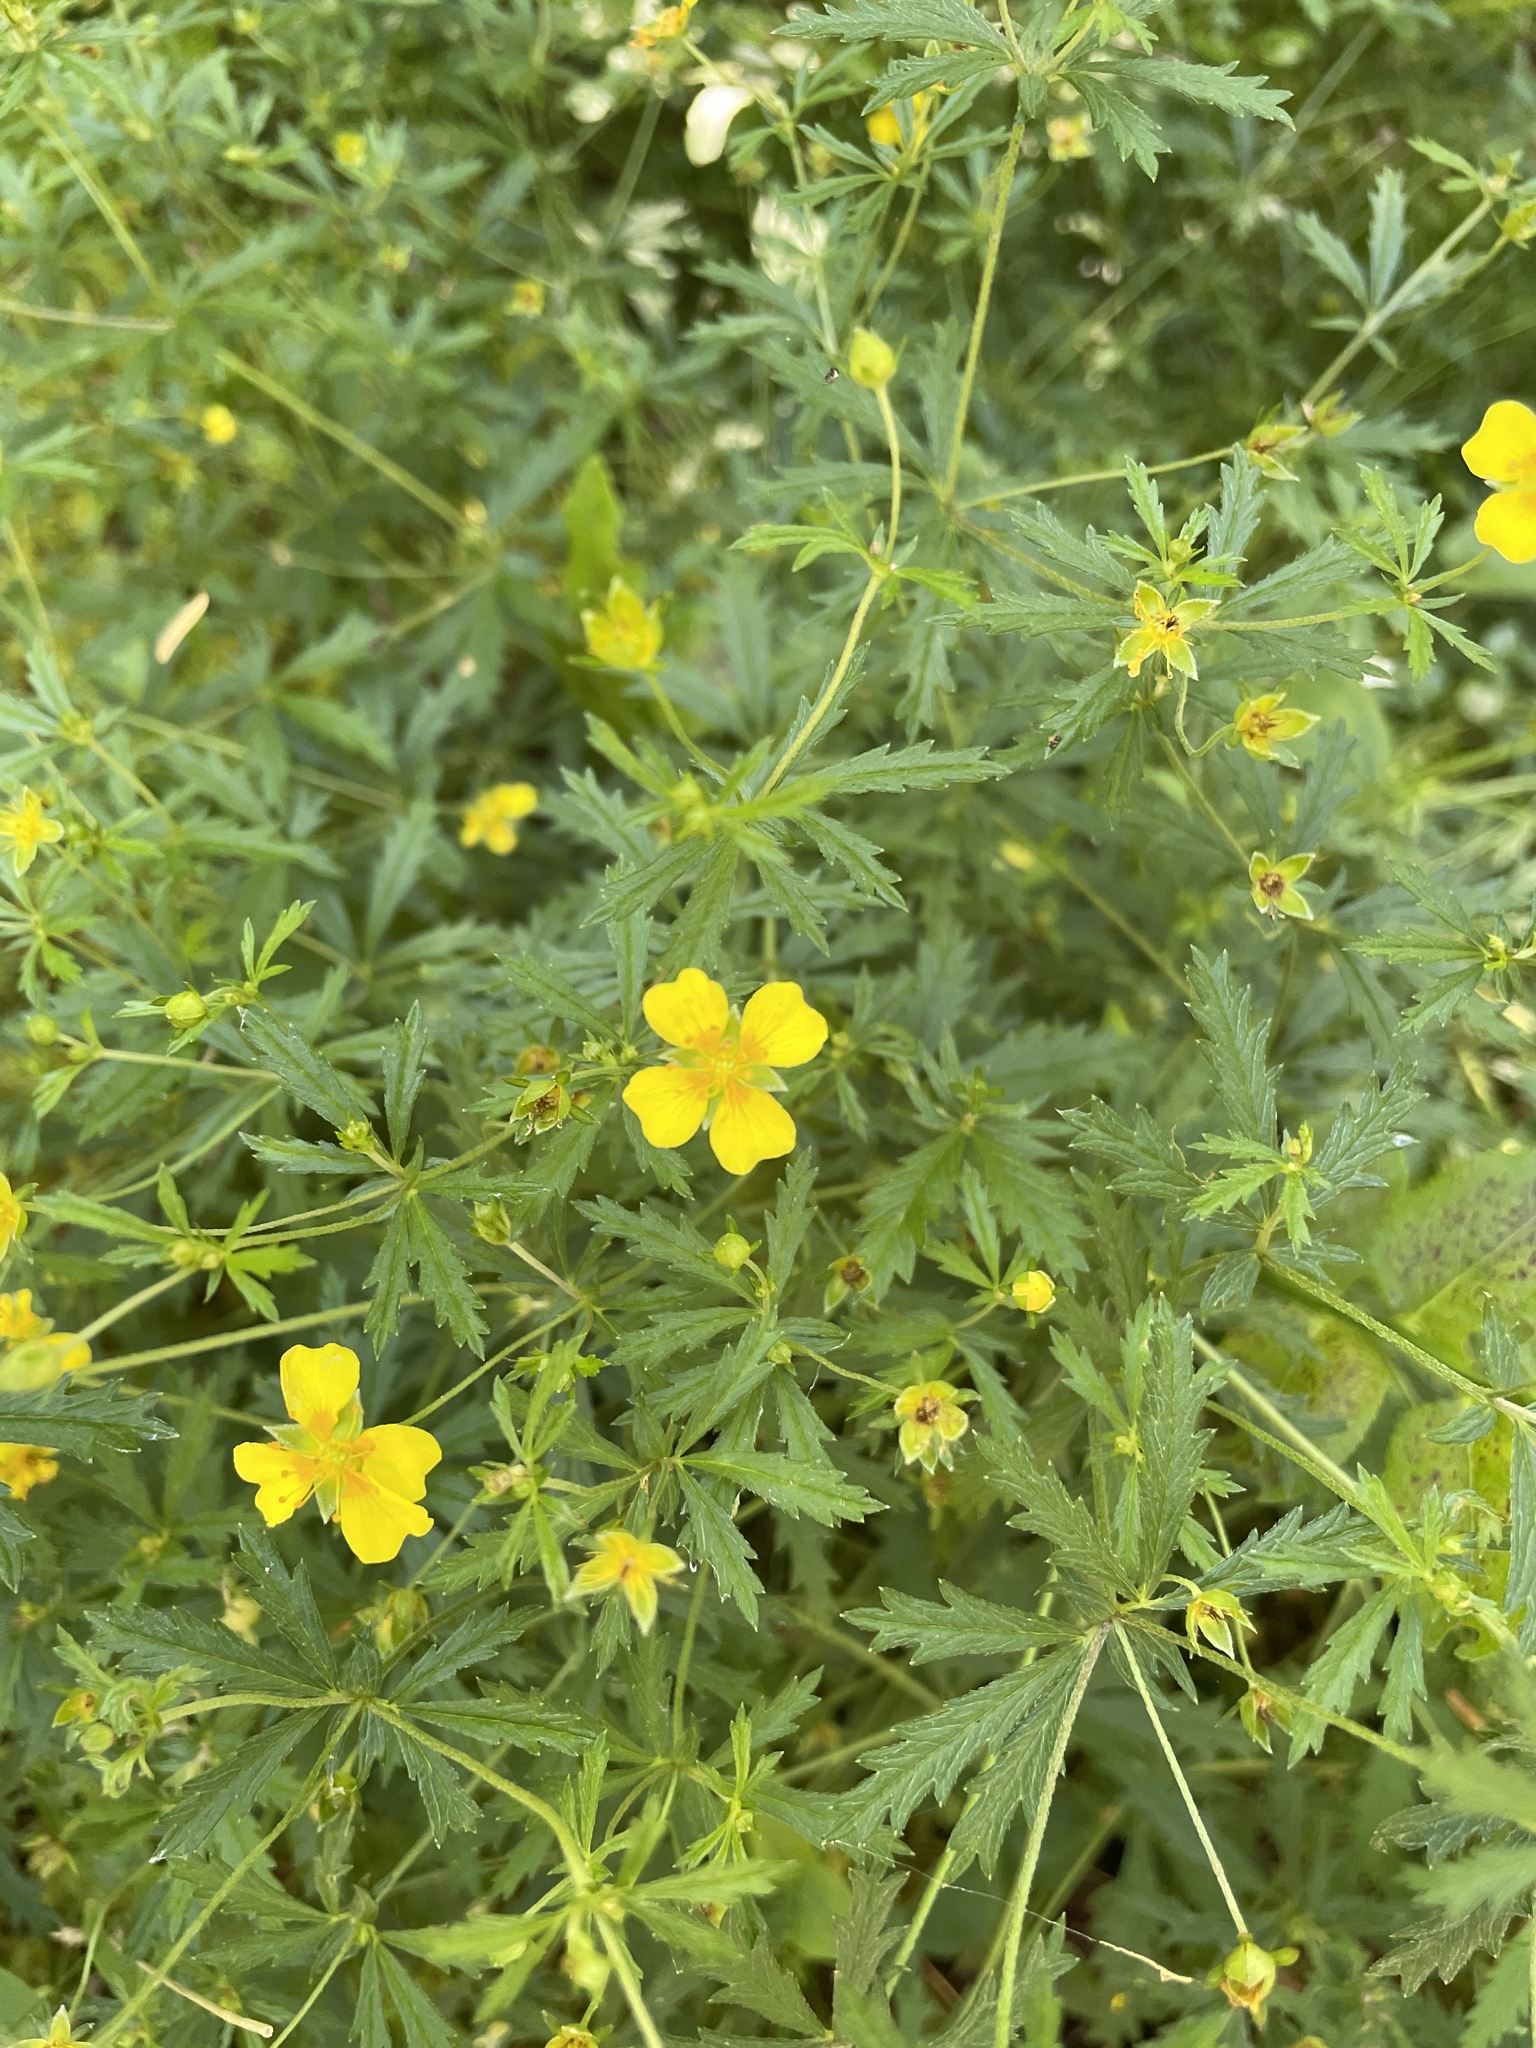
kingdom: Plantae
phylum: Tracheophyta
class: Magnoliopsida
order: Rosales
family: Rosaceae
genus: Potentilla
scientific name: Potentilla erecta
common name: Tormentil
